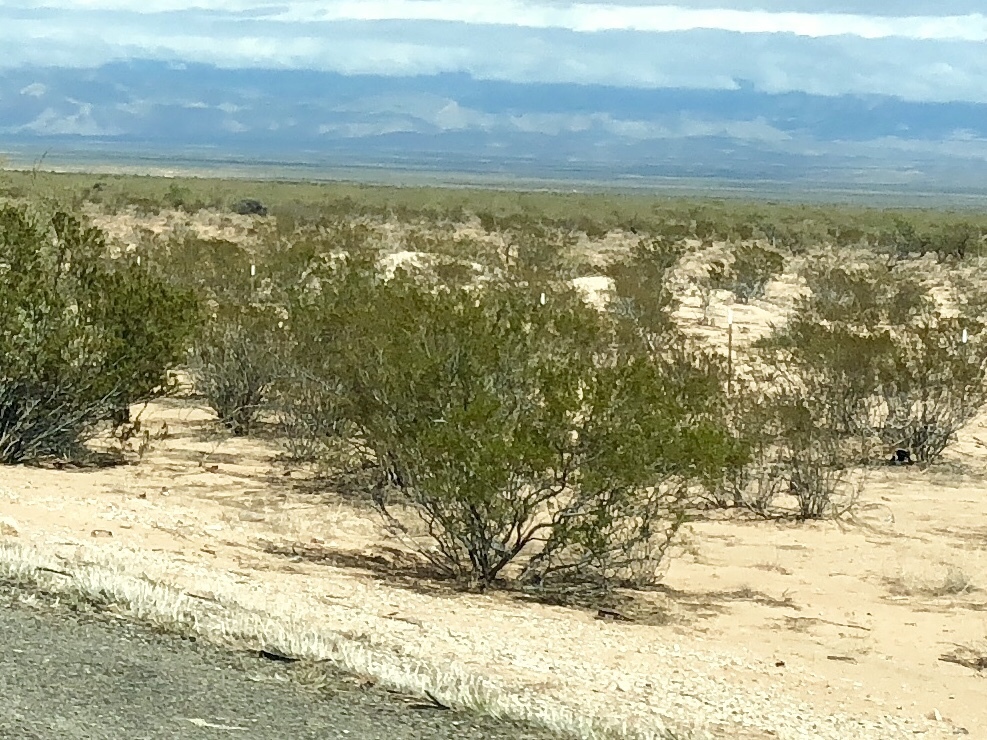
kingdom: Plantae
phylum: Tracheophyta
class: Magnoliopsida
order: Zygophyllales
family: Zygophyllaceae
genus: Larrea
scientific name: Larrea tridentata
